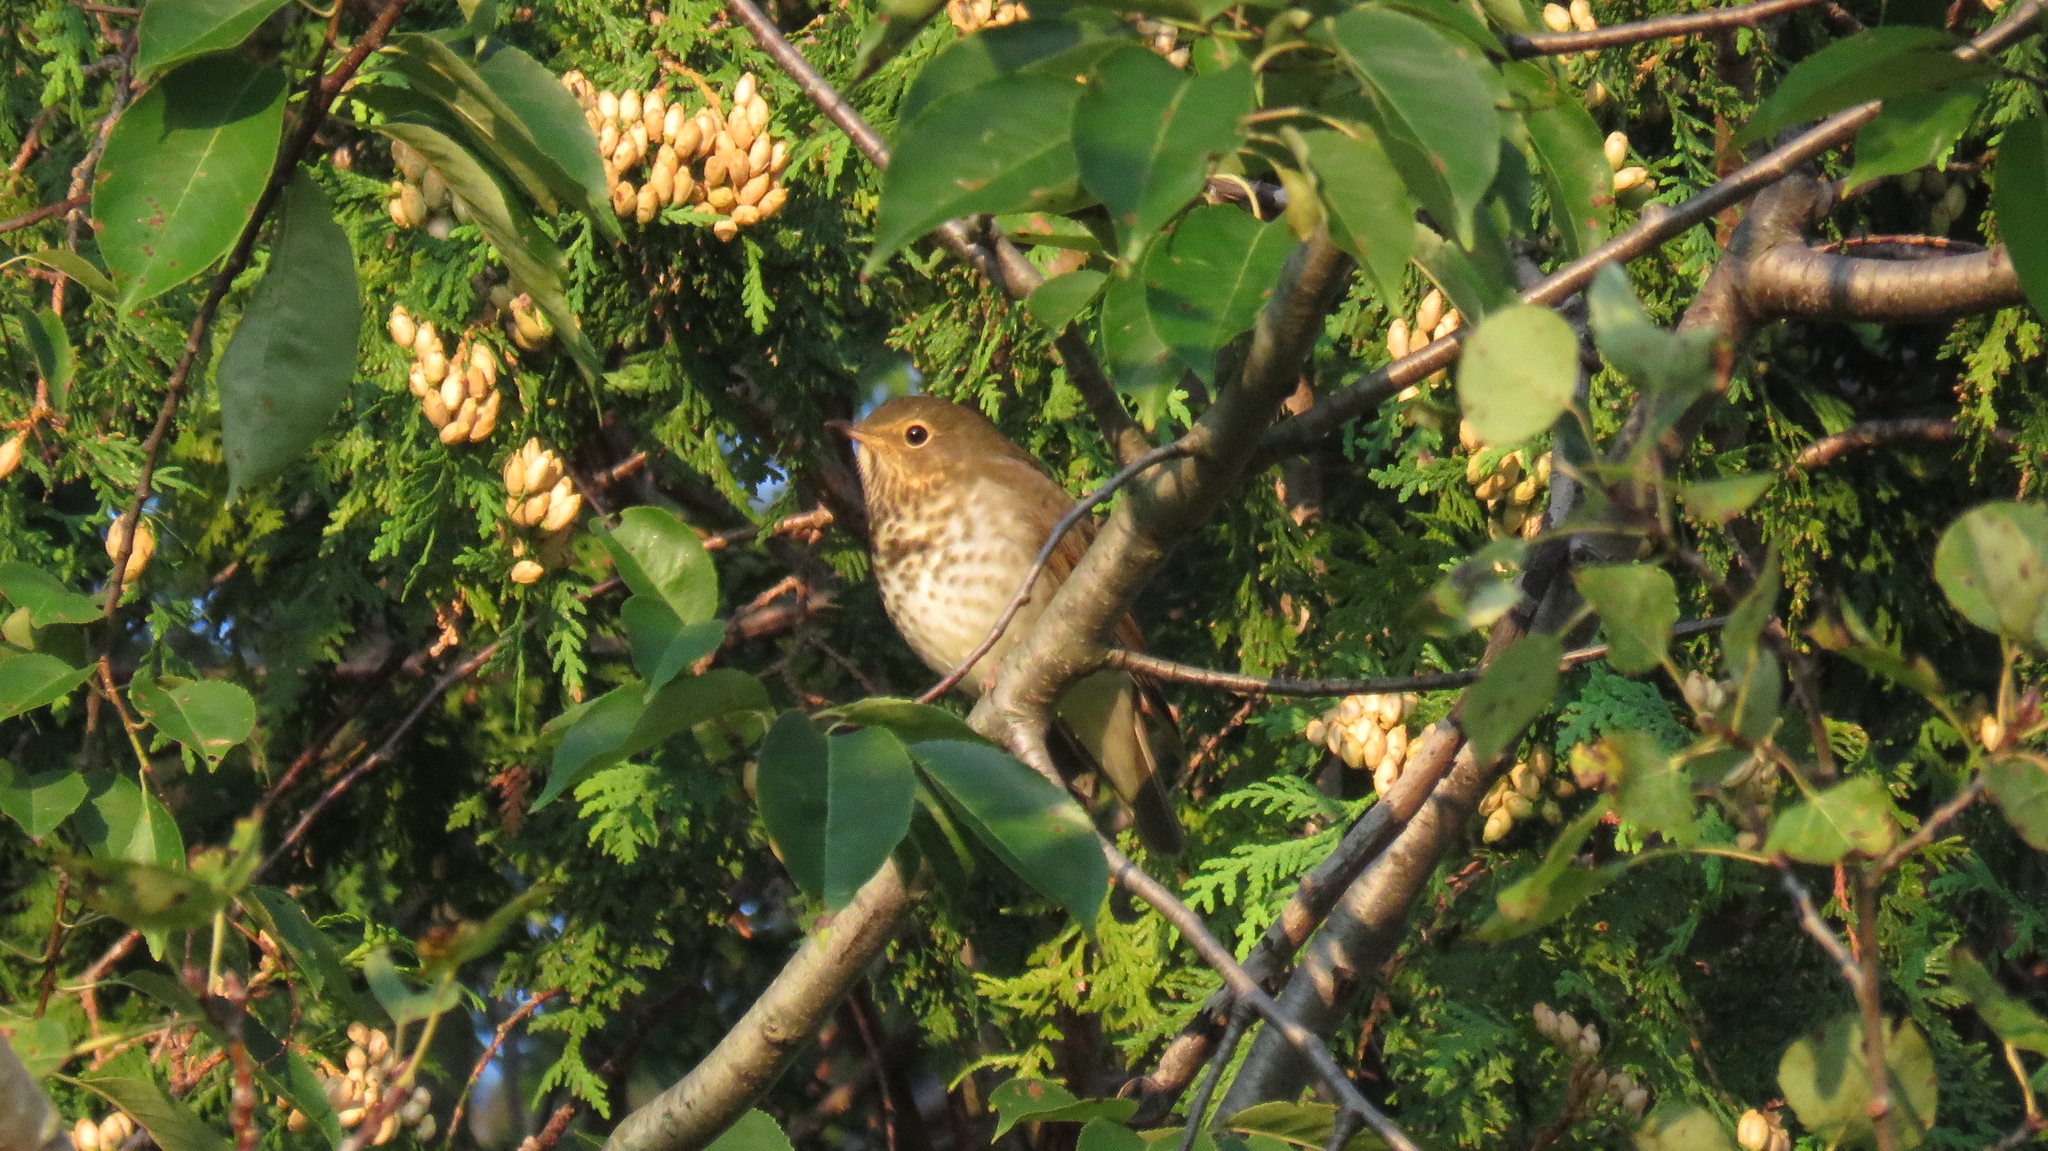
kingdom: Animalia
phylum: Chordata
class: Aves
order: Passeriformes
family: Turdidae
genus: Catharus
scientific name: Catharus ustulatus
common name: Swainson's thrush
